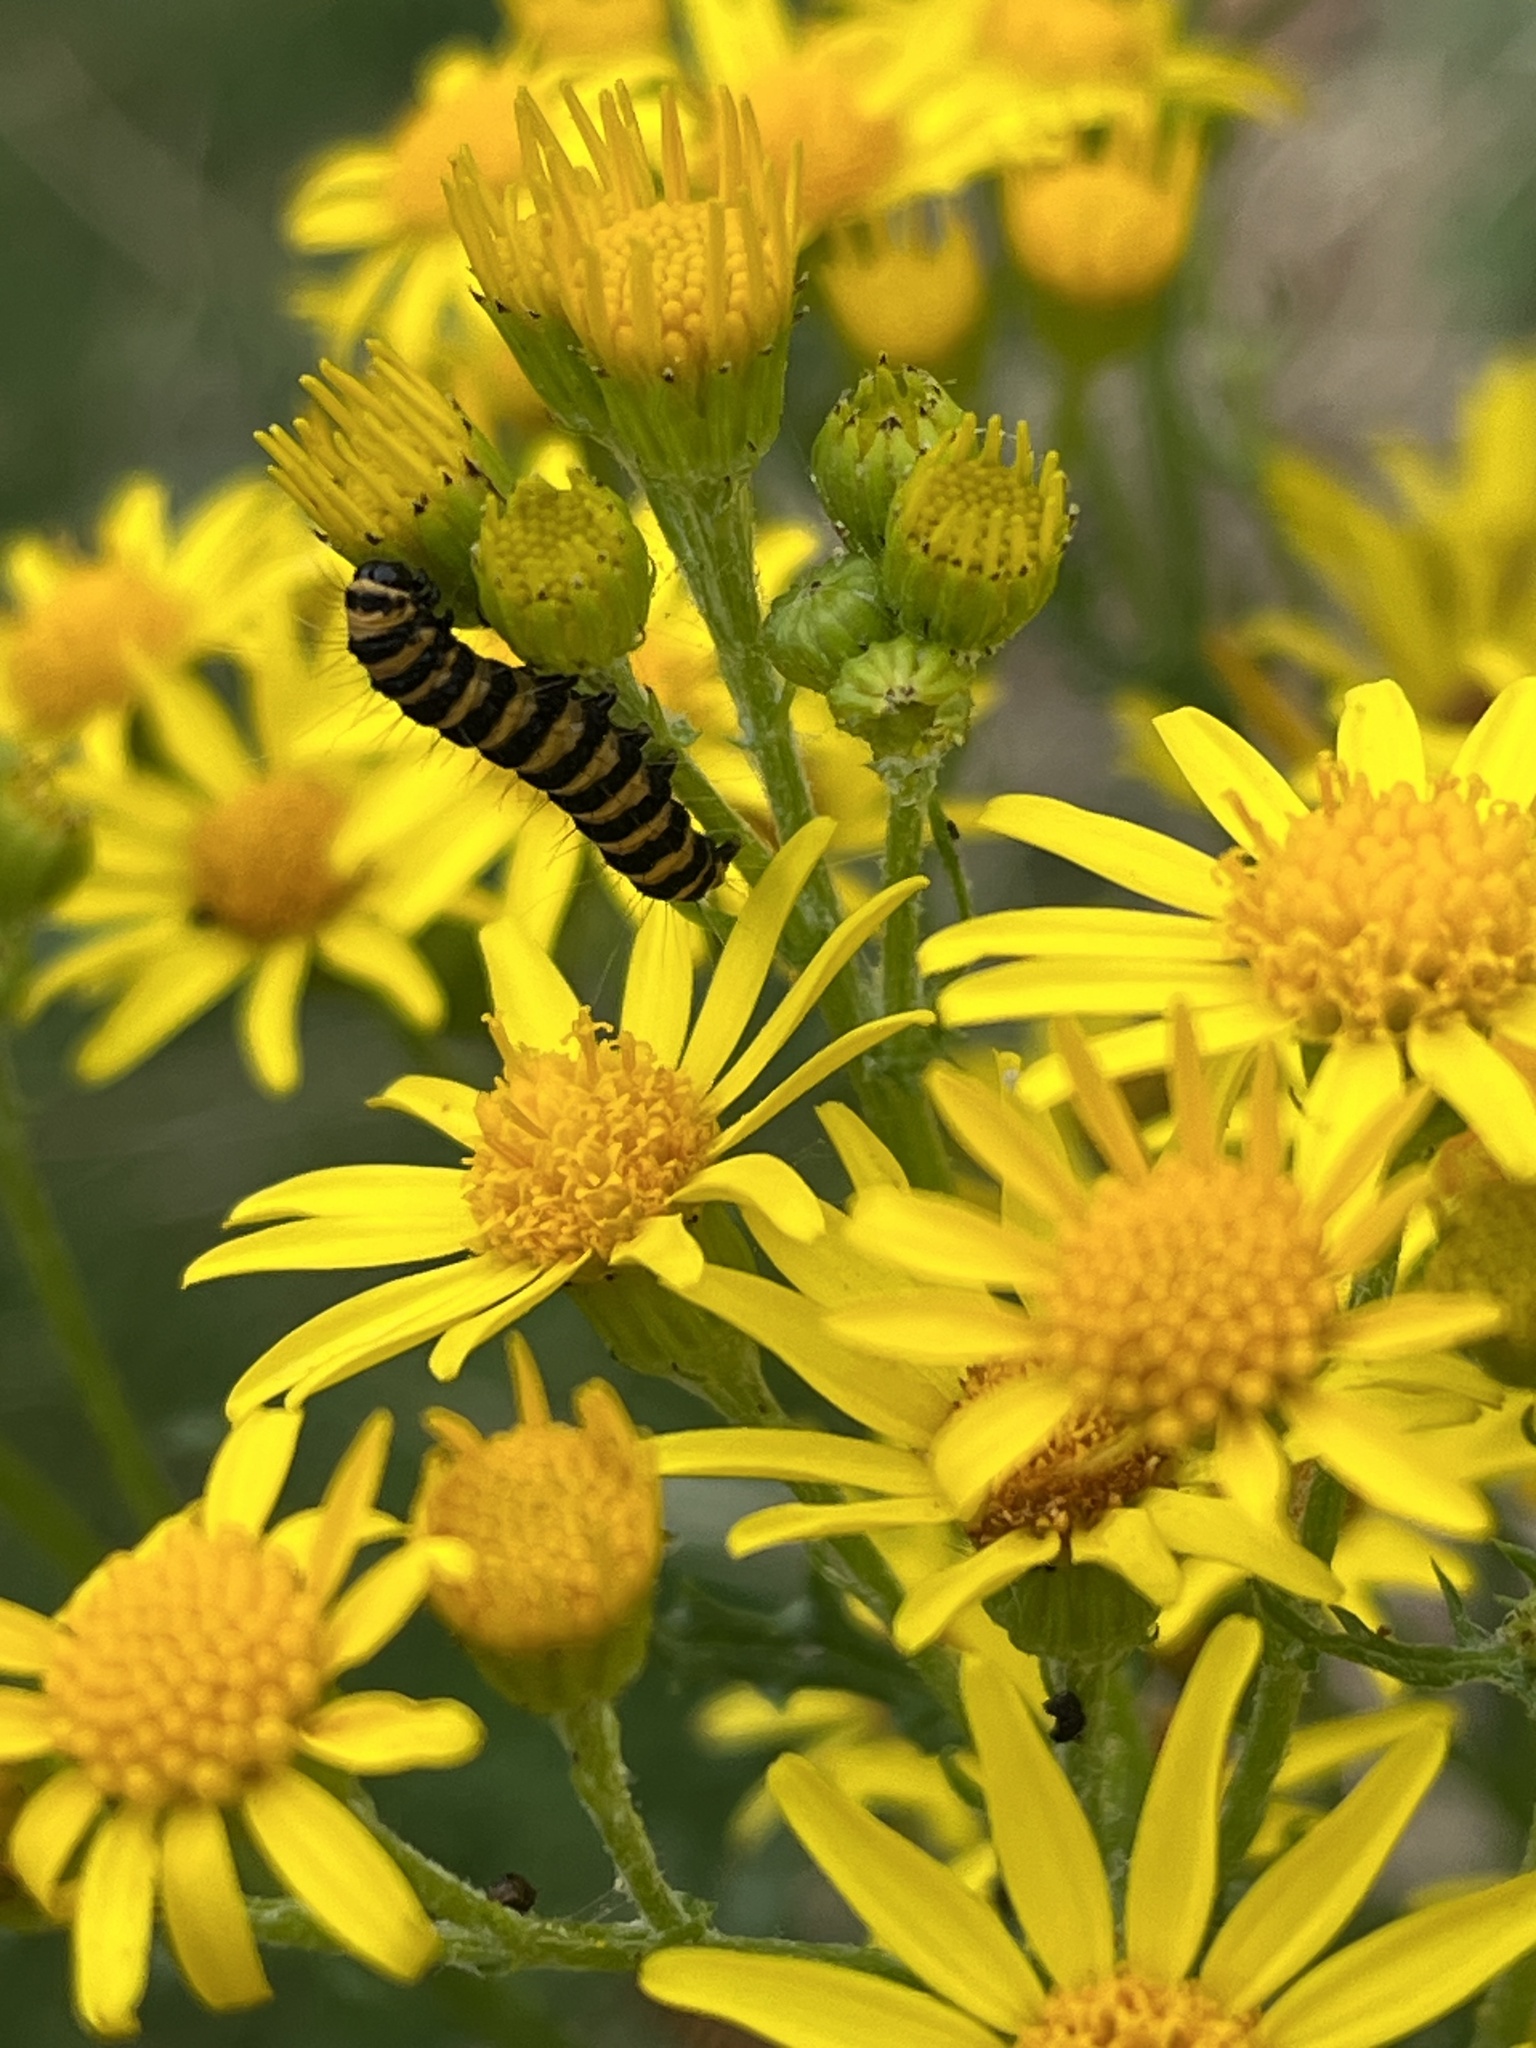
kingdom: Animalia
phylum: Arthropoda
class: Insecta
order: Lepidoptera
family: Erebidae
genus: Tyria
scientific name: Tyria jacobaeae
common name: Cinnabar
